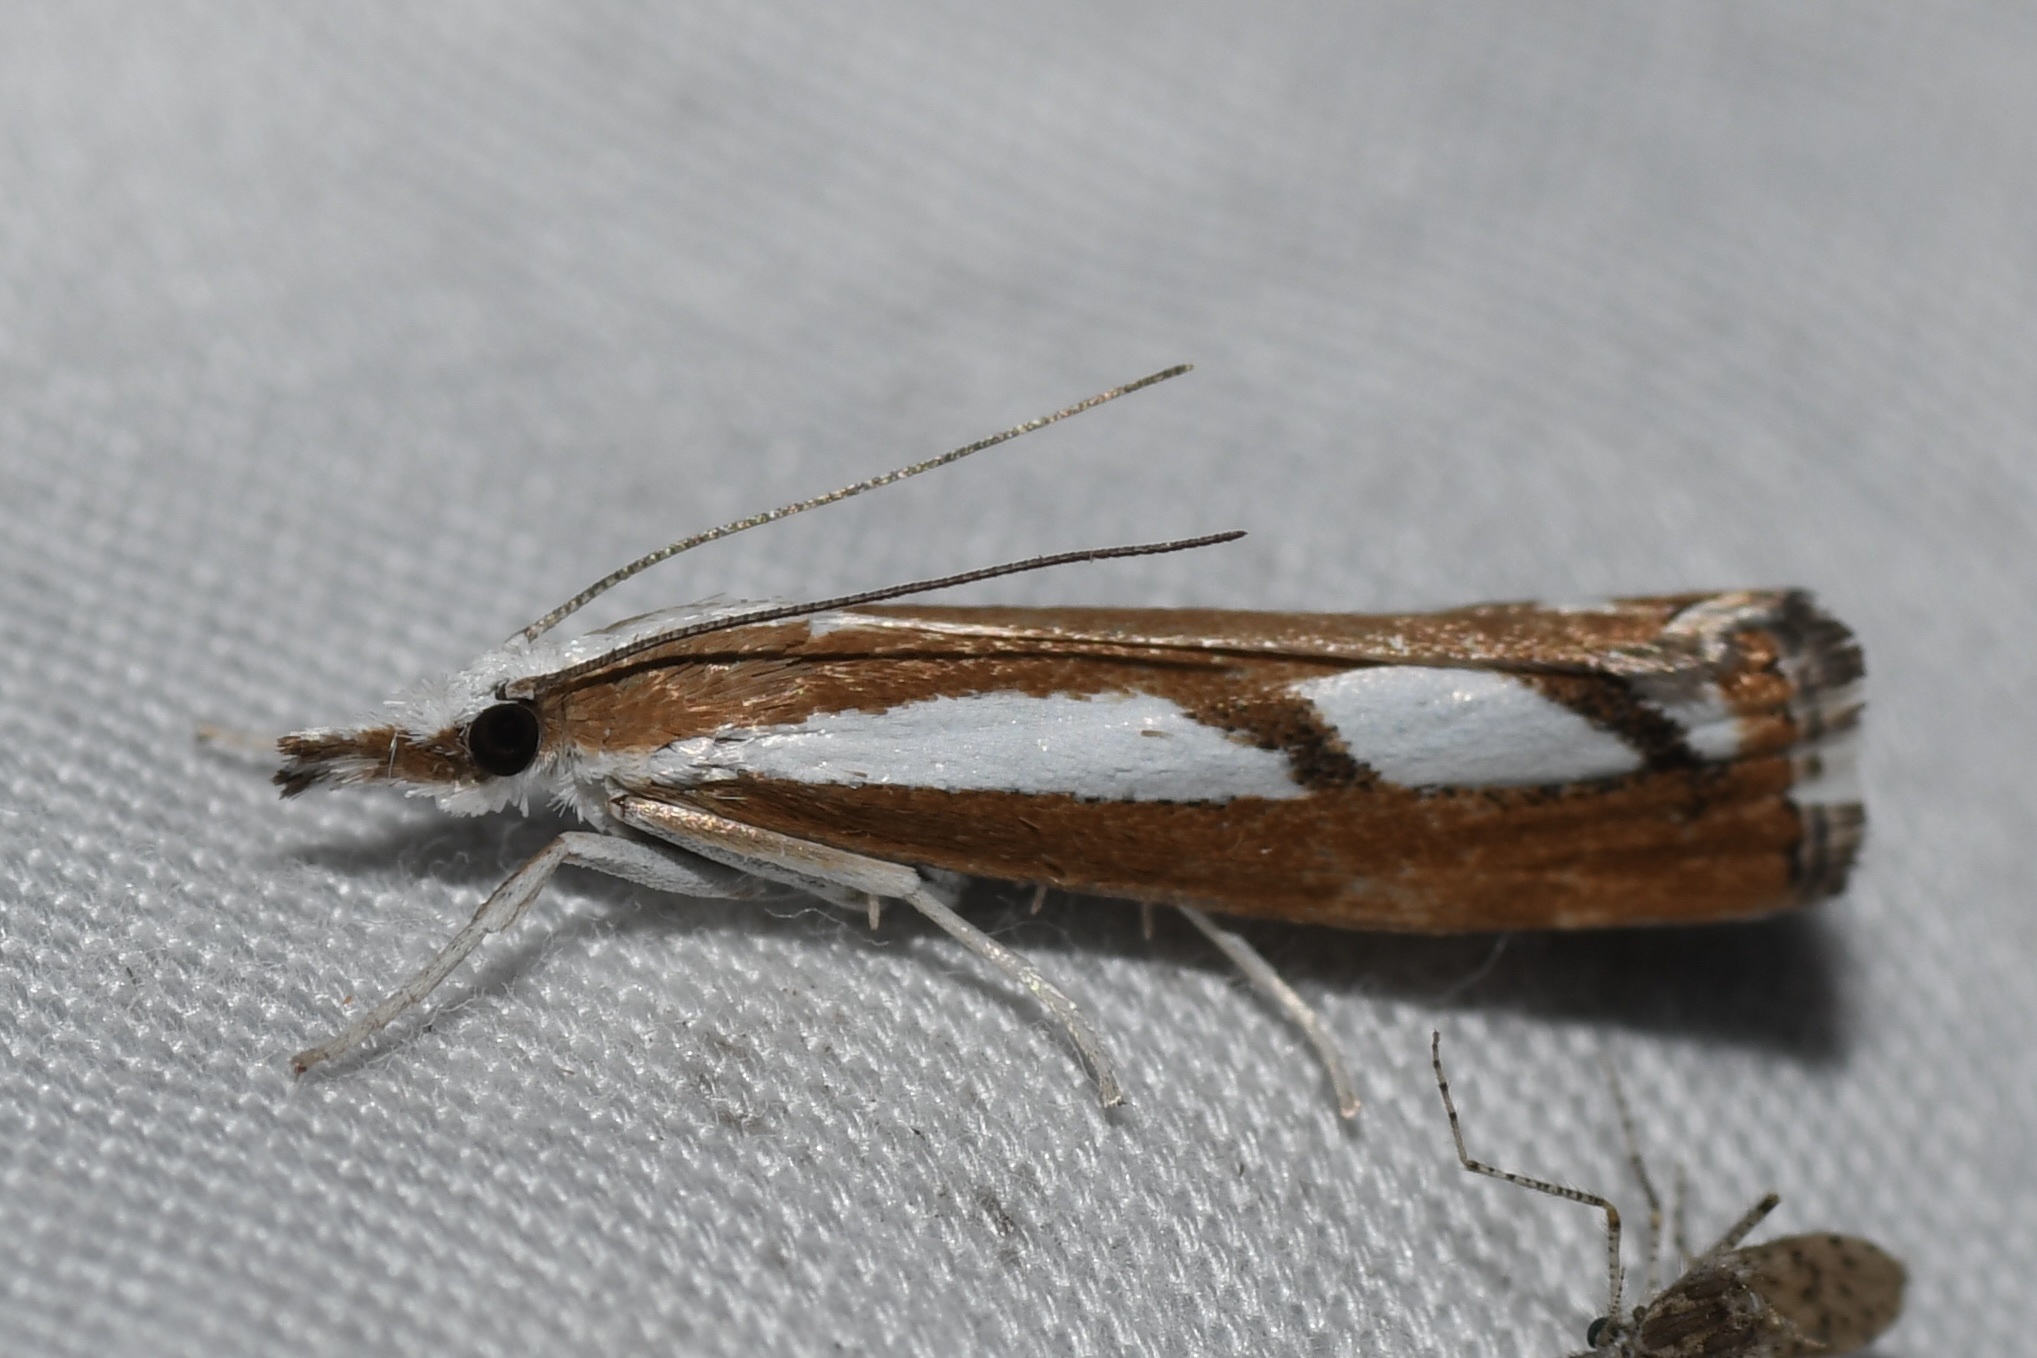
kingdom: Animalia
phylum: Arthropoda
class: Insecta
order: Lepidoptera
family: Crambidae
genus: Catoptria
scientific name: Catoptria latiradiellus
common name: Two-banded catoptria moth
